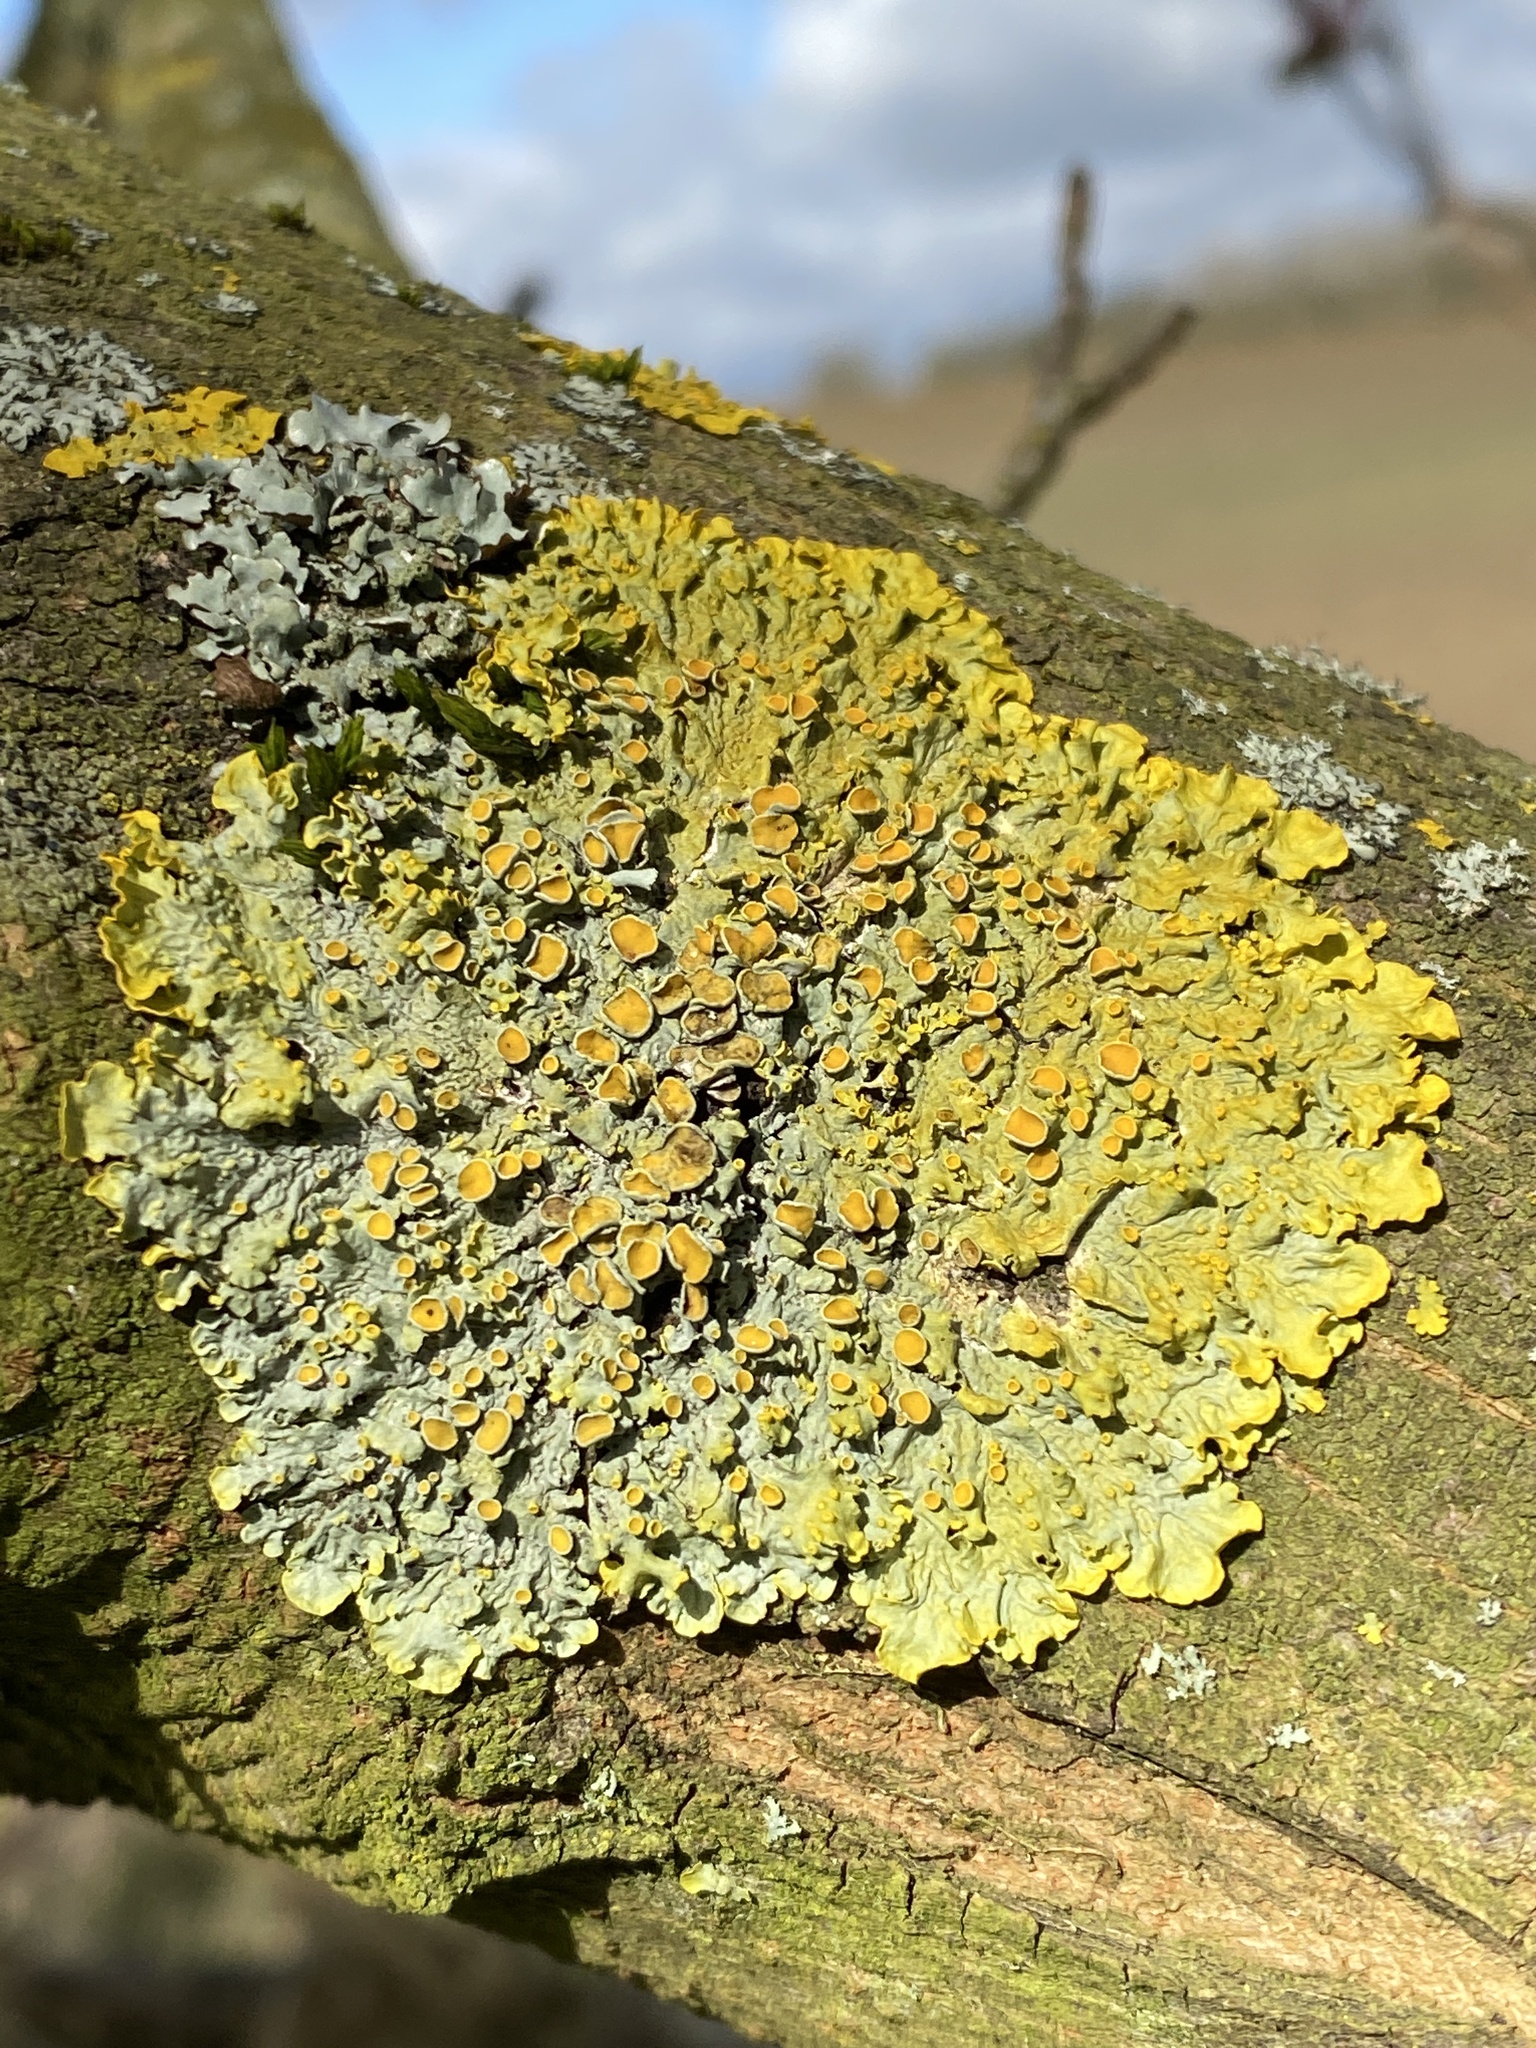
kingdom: Fungi
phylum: Ascomycota
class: Lecanoromycetes
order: Teloschistales
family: Teloschistaceae
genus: Xanthoria
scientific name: Xanthoria parietina
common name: Common orange lichen
